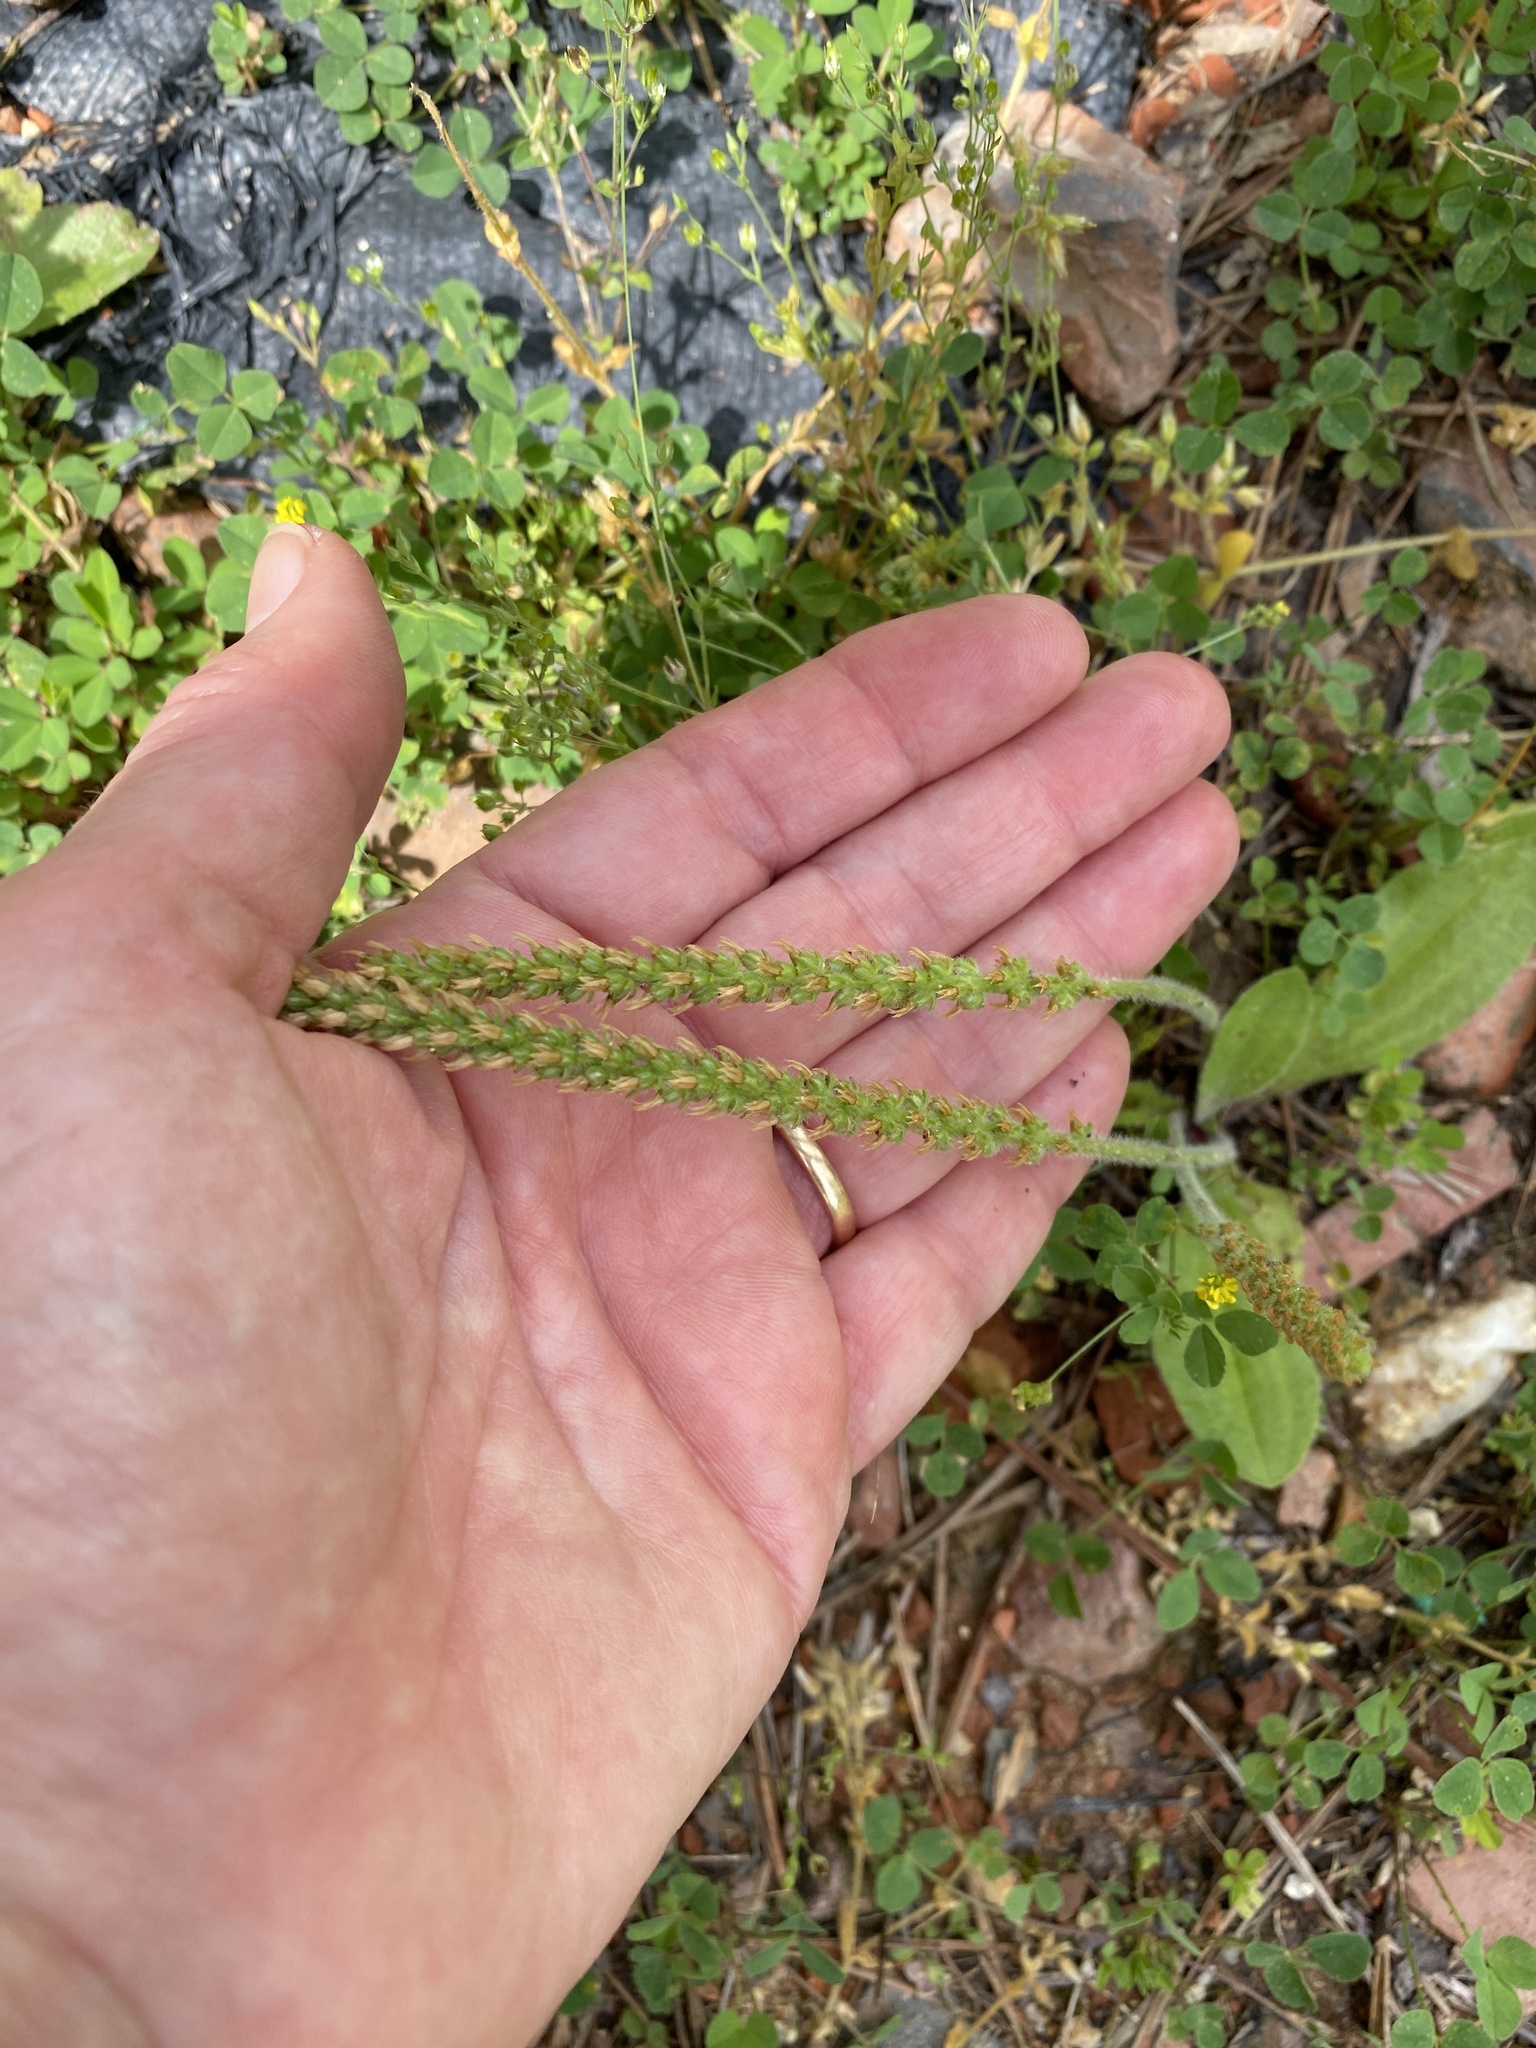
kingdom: Plantae
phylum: Tracheophyta
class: Magnoliopsida
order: Lamiales
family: Plantaginaceae
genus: Plantago
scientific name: Plantago virginica
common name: Hoary plantain
